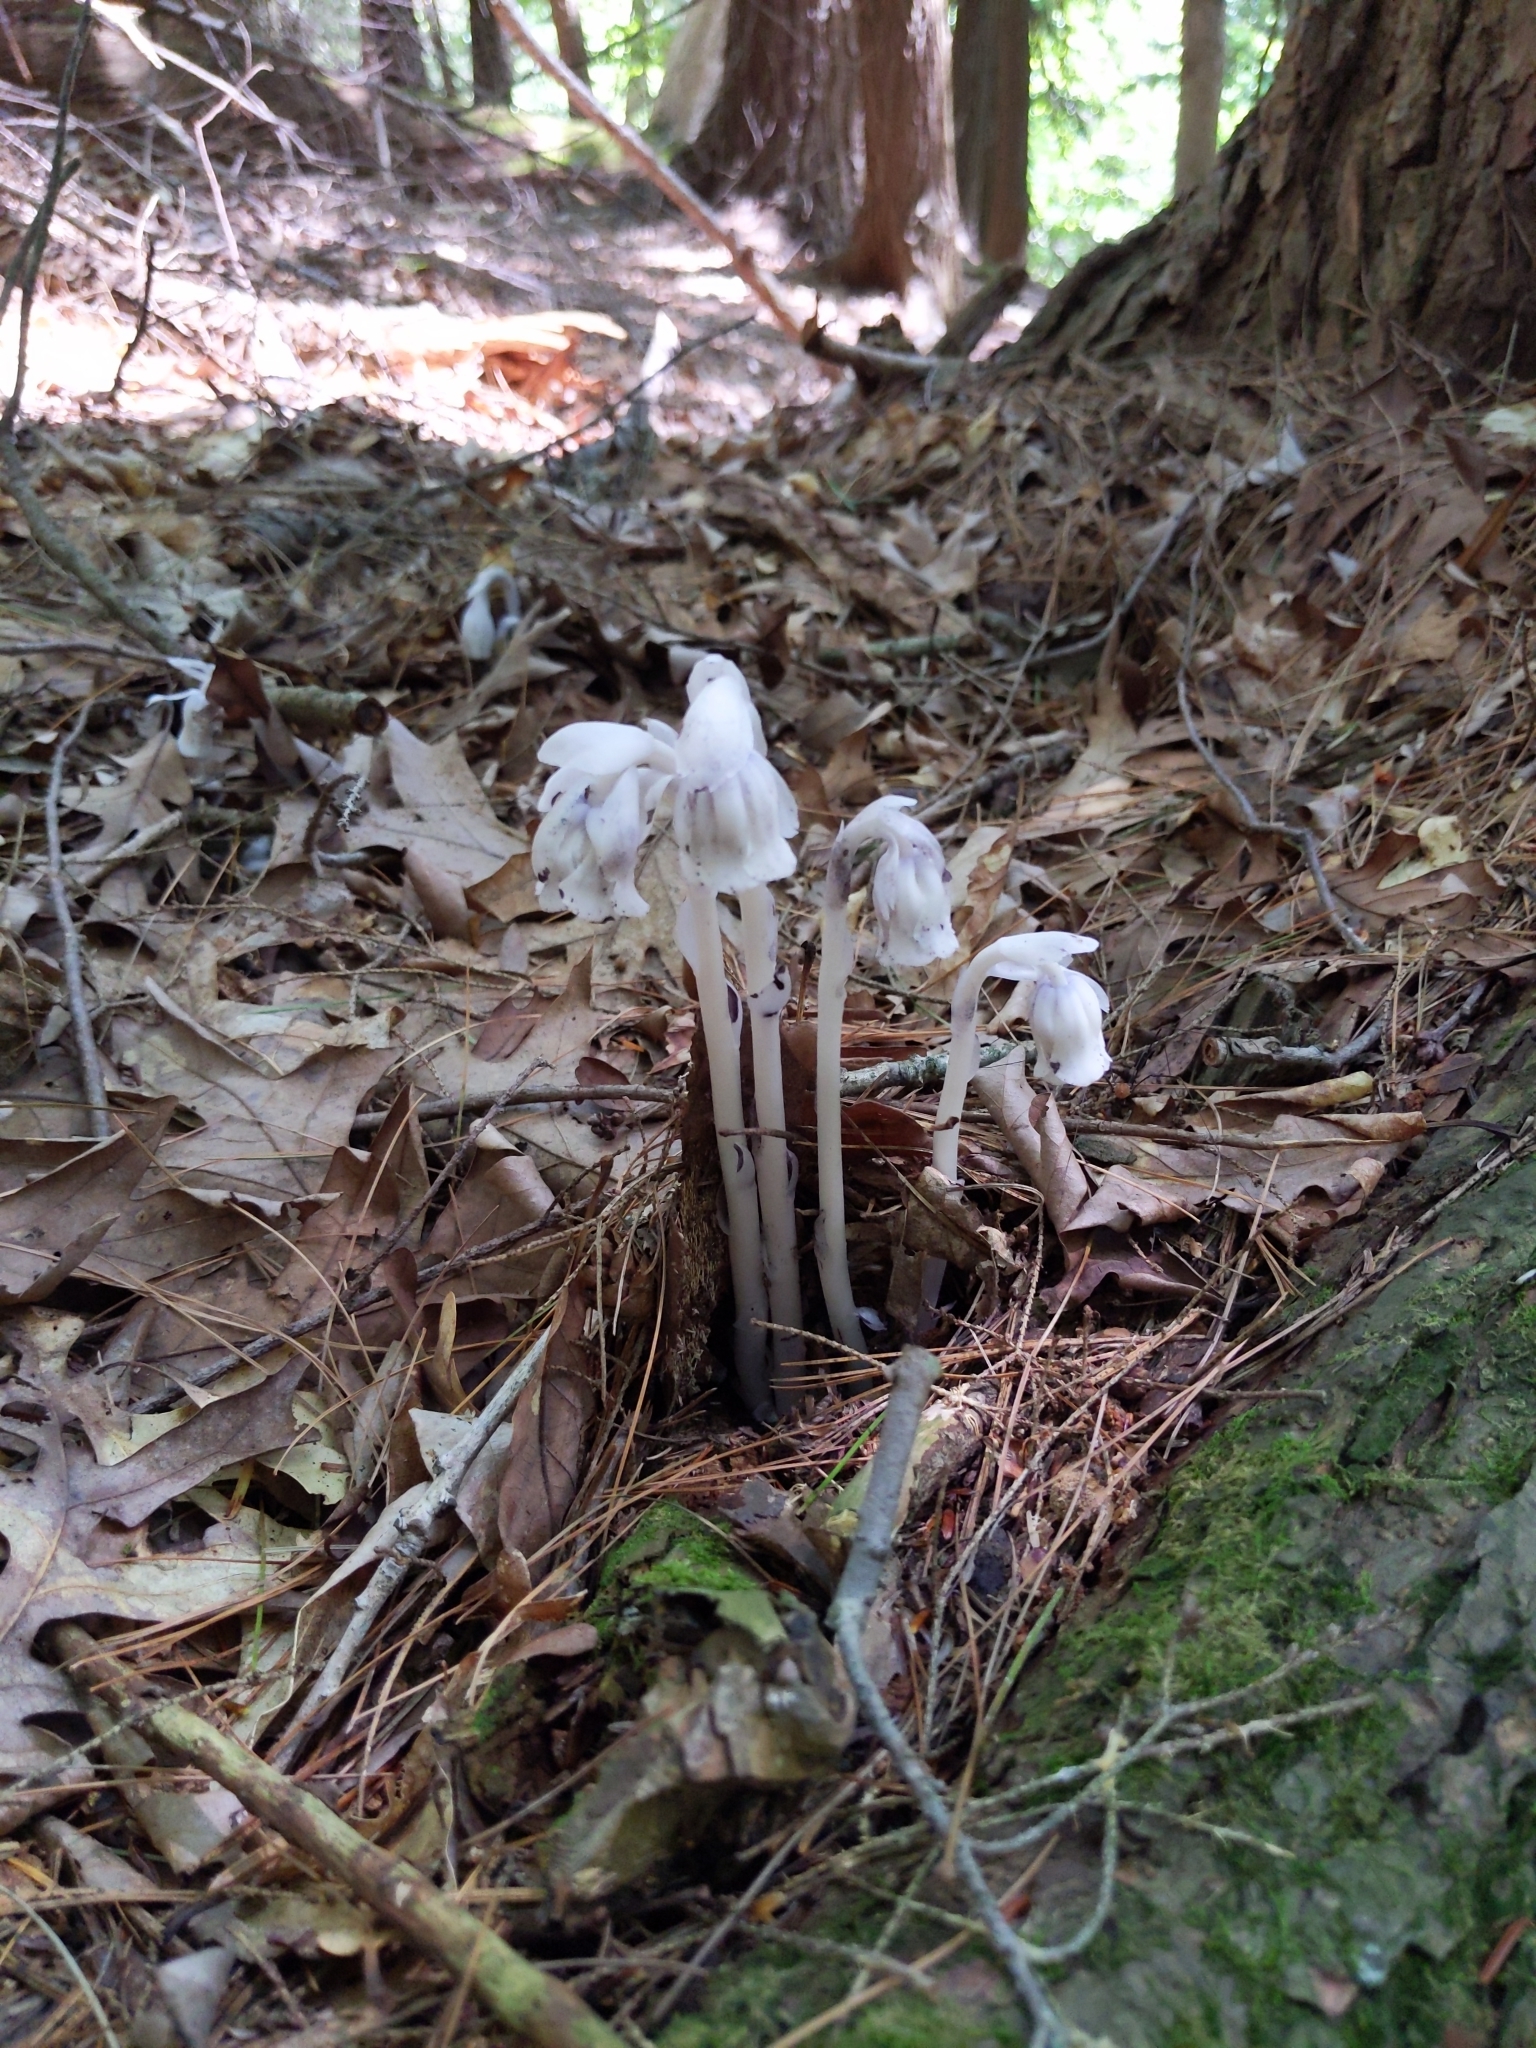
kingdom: Plantae
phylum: Tracheophyta
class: Magnoliopsida
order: Ericales
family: Ericaceae
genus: Monotropa
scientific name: Monotropa uniflora
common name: Convulsion root
